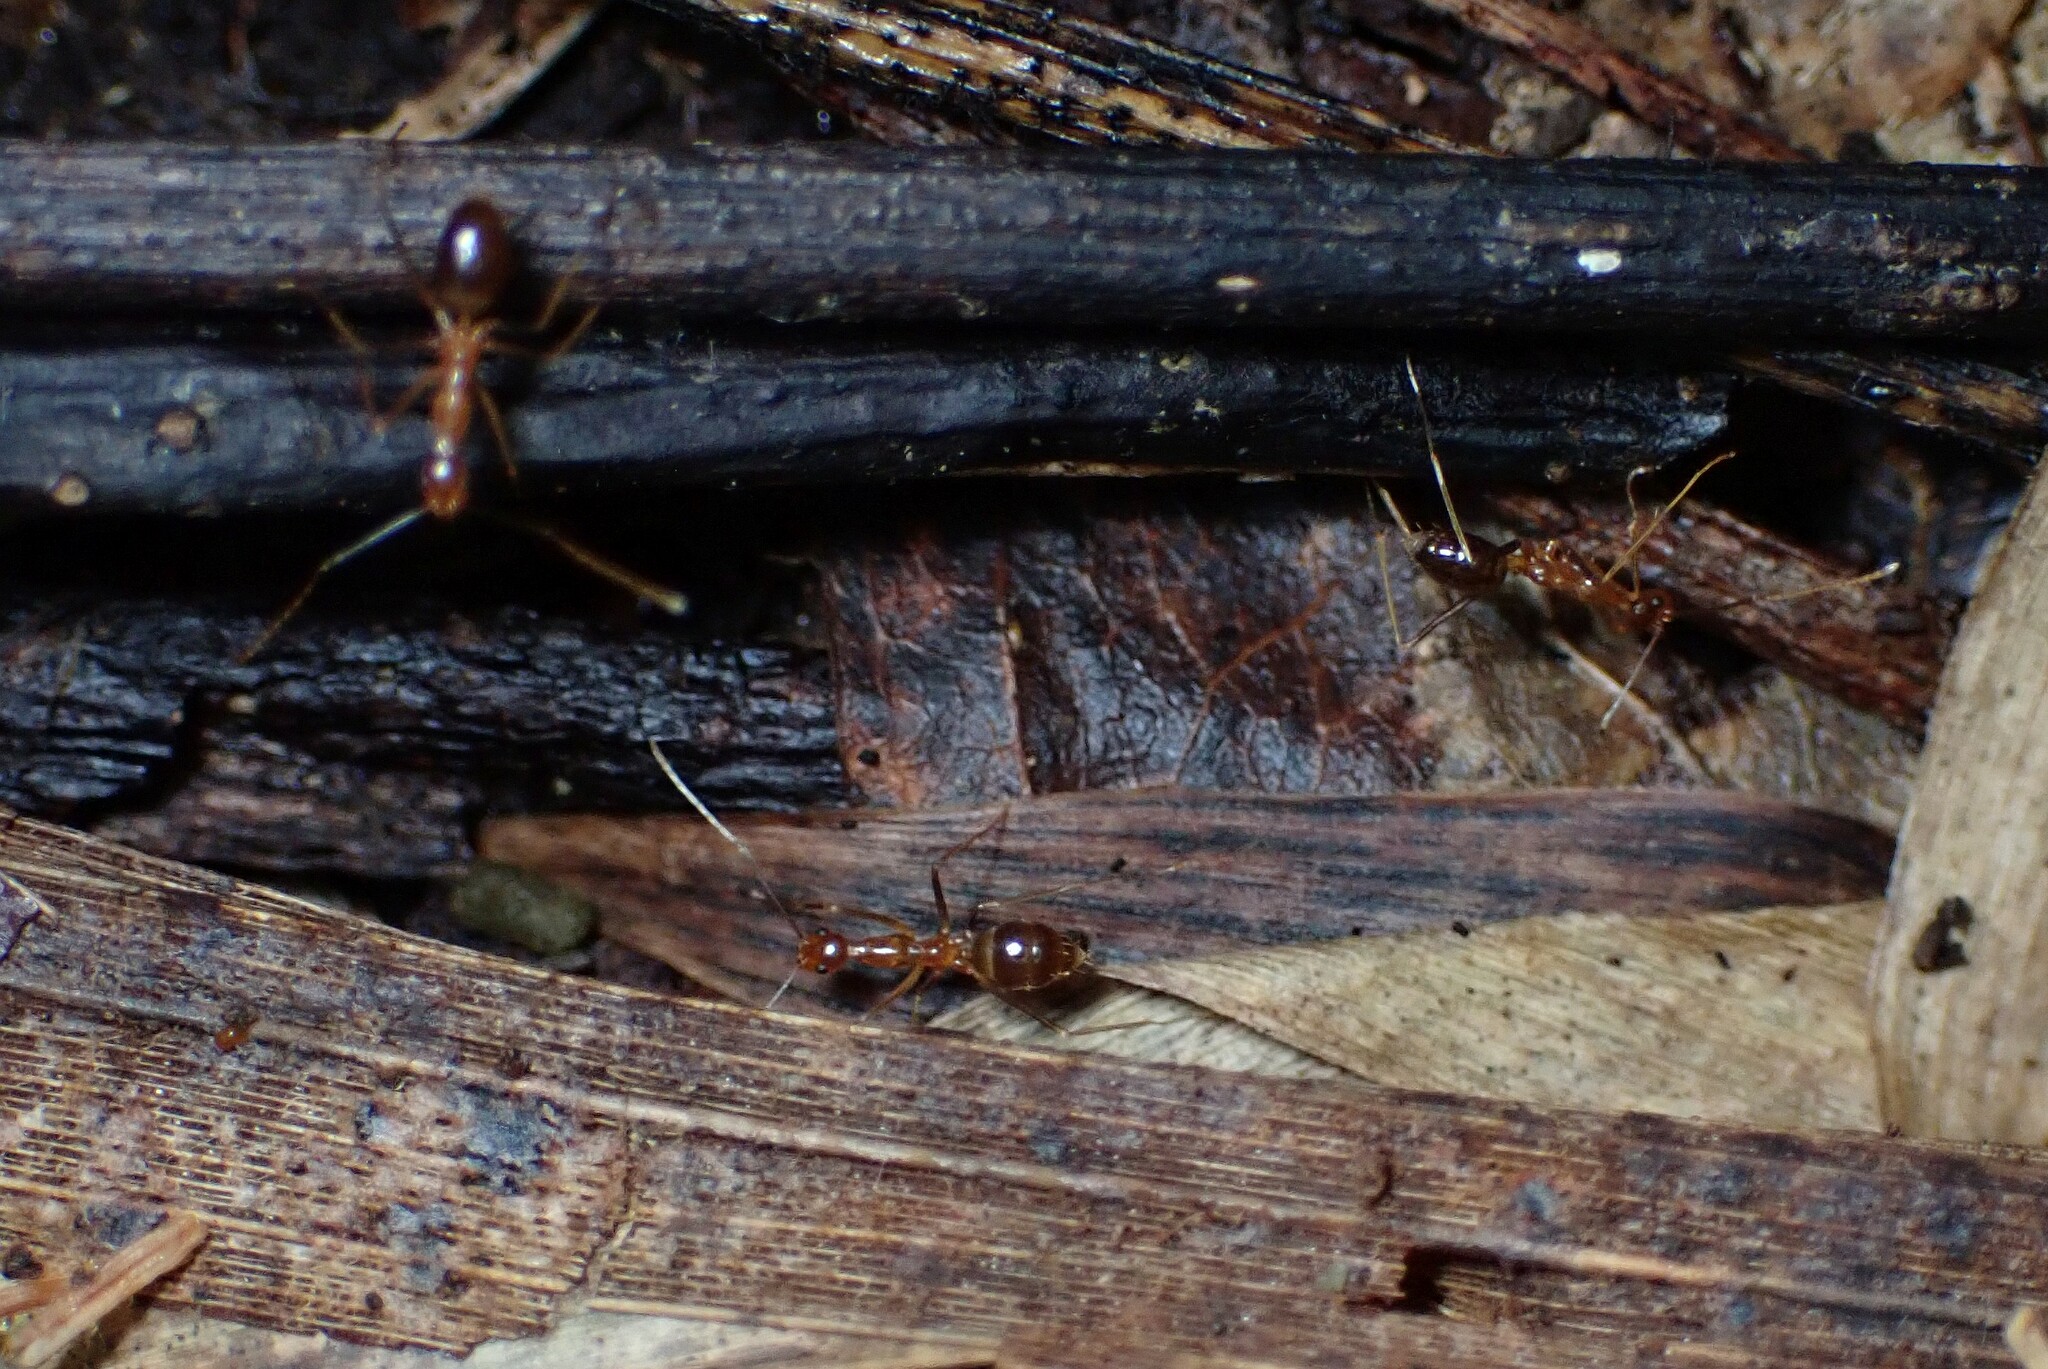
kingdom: Animalia
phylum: Arthropoda
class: Insecta
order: Hymenoptera
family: Formicidae
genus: Anoplolepis
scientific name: Anoplolepis gracilipes
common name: Ant
